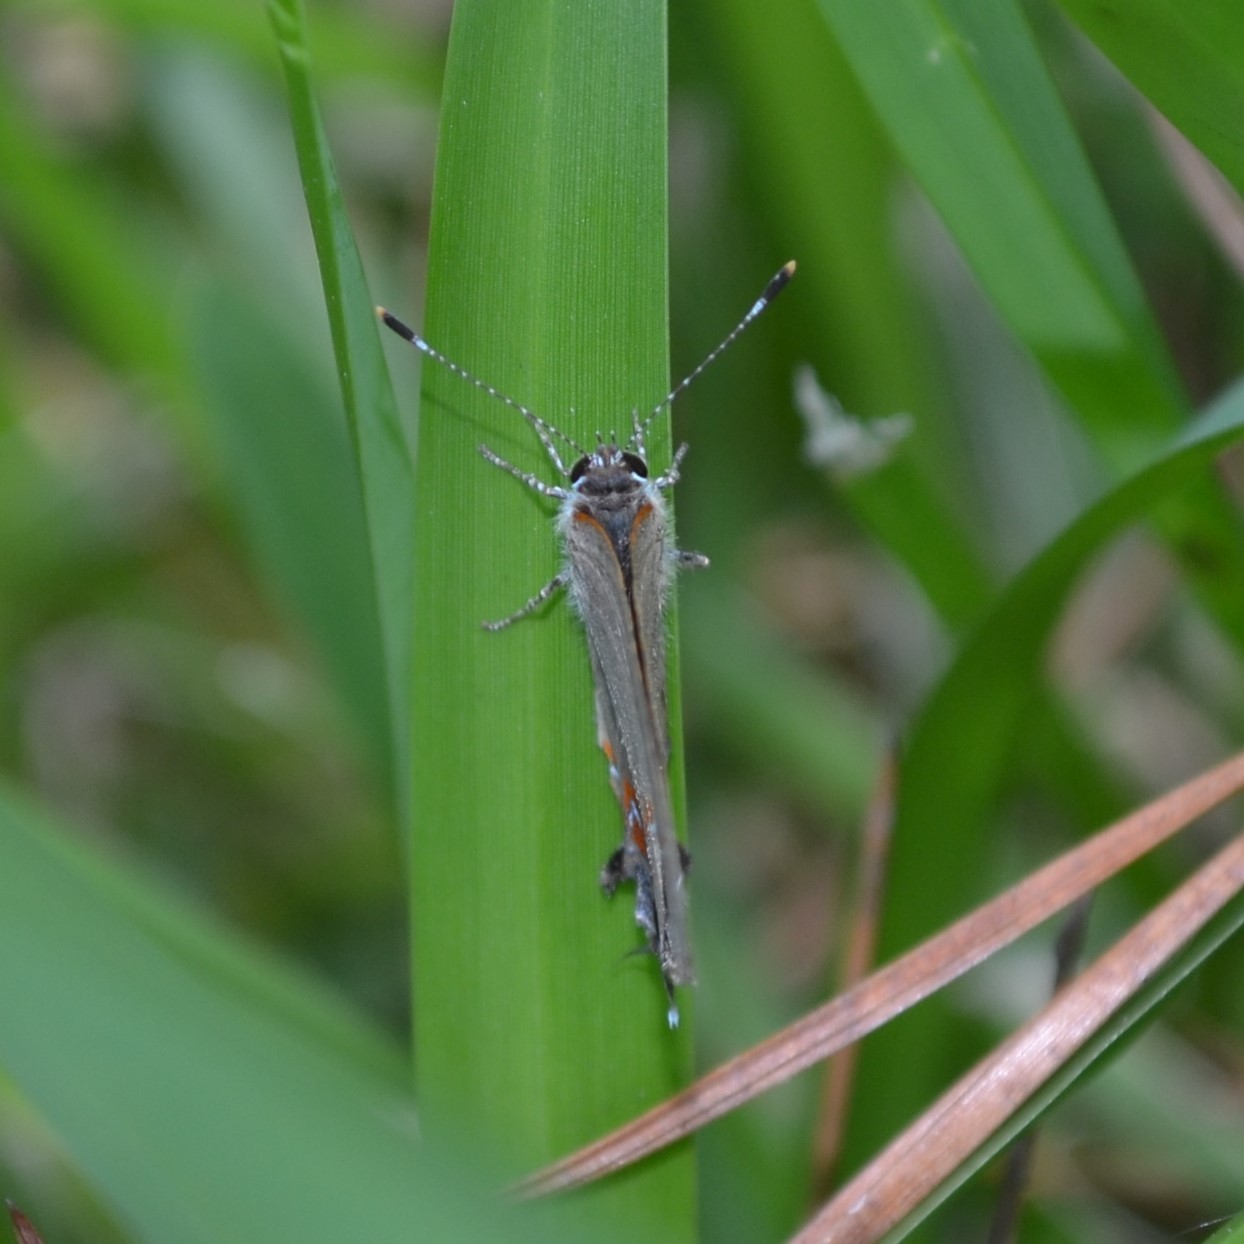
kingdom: Animalia
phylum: Arthropoda
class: Insecta
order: Lepidoptera
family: Lycaenidae
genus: Calycopis
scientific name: Calycopis cecrops
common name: Red-banded hairstreak
